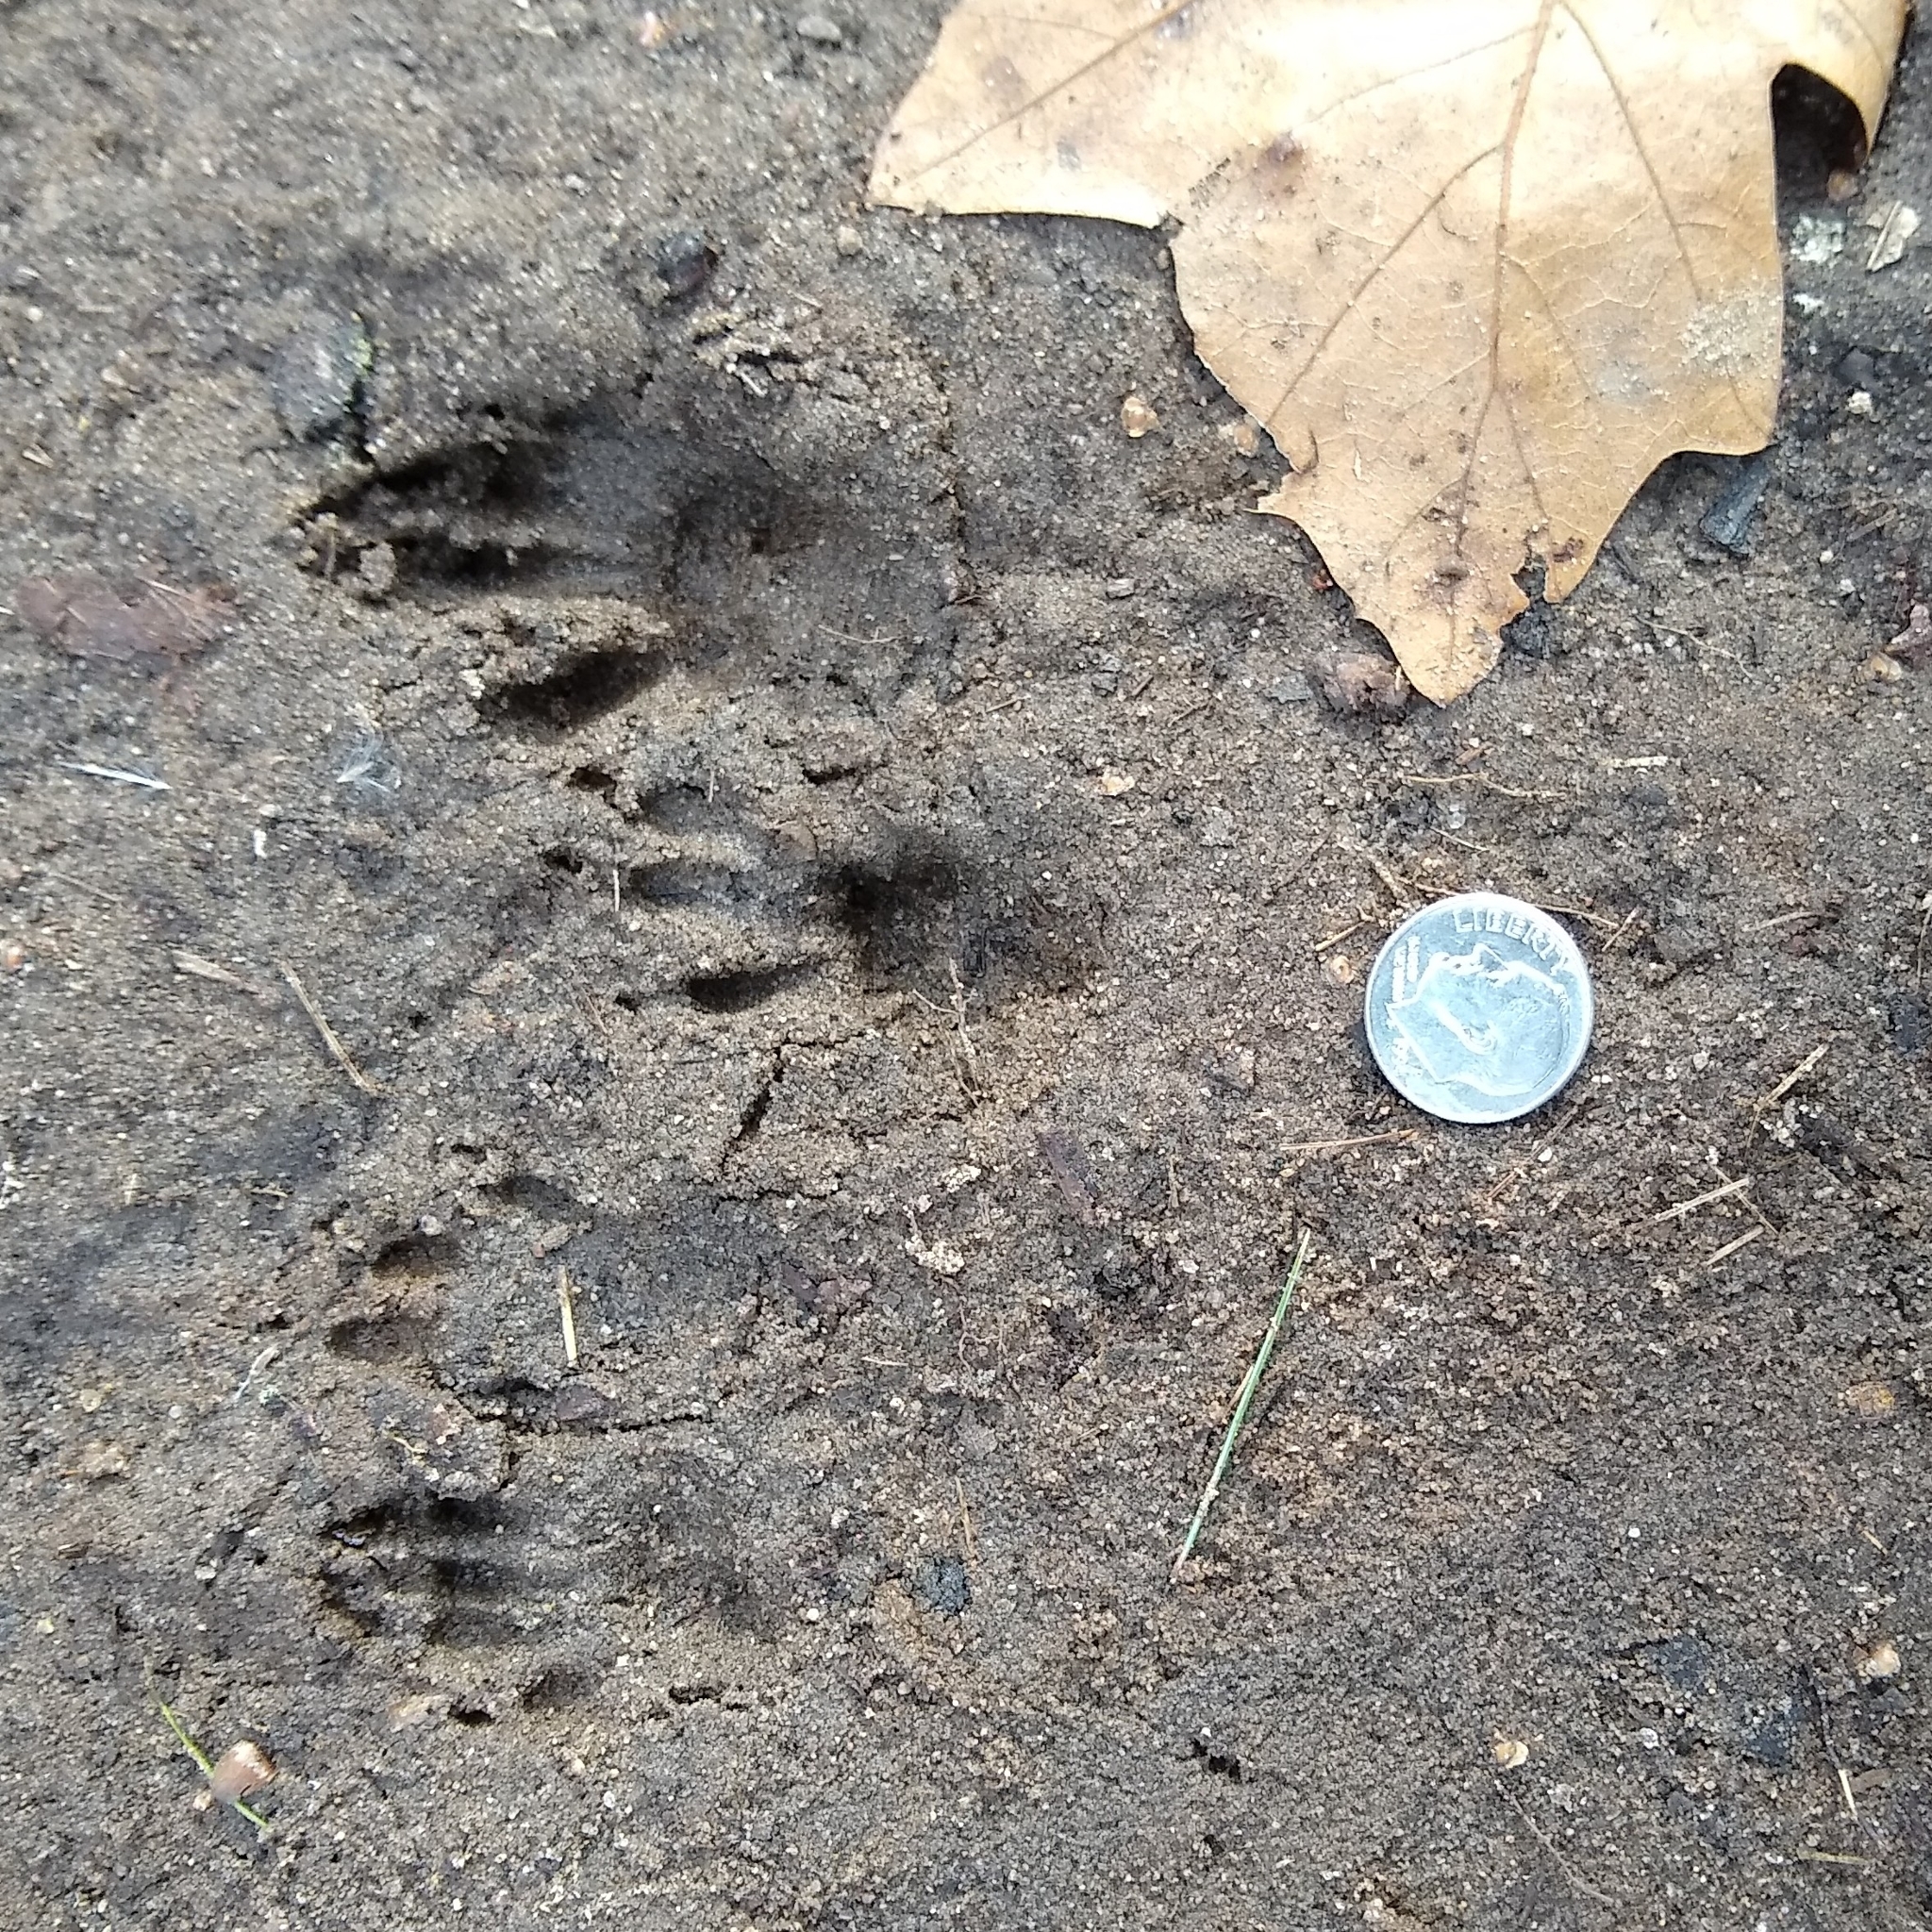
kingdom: Animalia
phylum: Chordata
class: Mammalia
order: Rodentia
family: Sciuridae
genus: Sciurus
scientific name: Sciurus carolinensis
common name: Eastern gray squirrel
